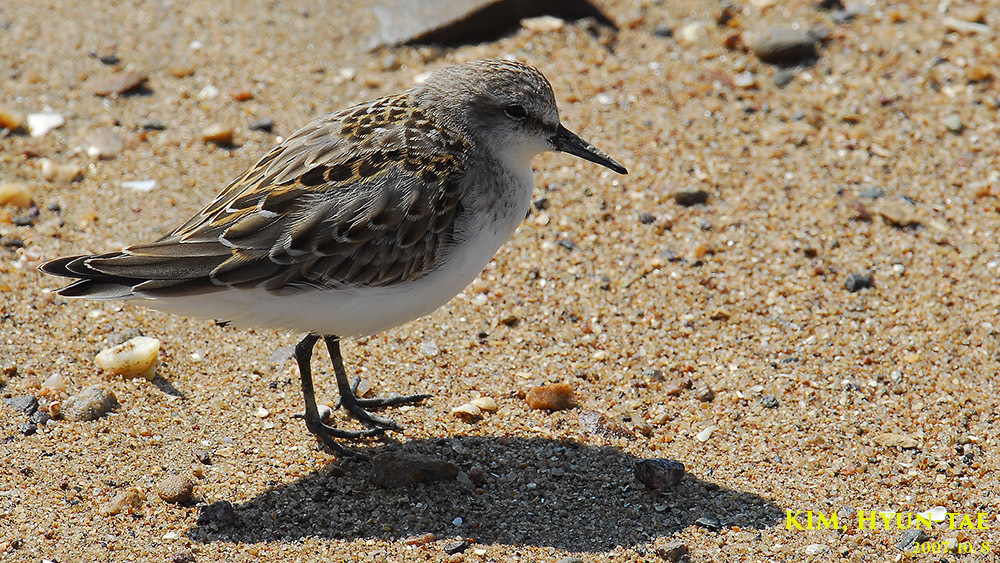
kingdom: Animalia
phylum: Chordata
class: Aves
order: Charadriiformes
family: Scolopacidae
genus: Calidris
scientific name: Calidris ruficollis
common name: Red-necked stint
